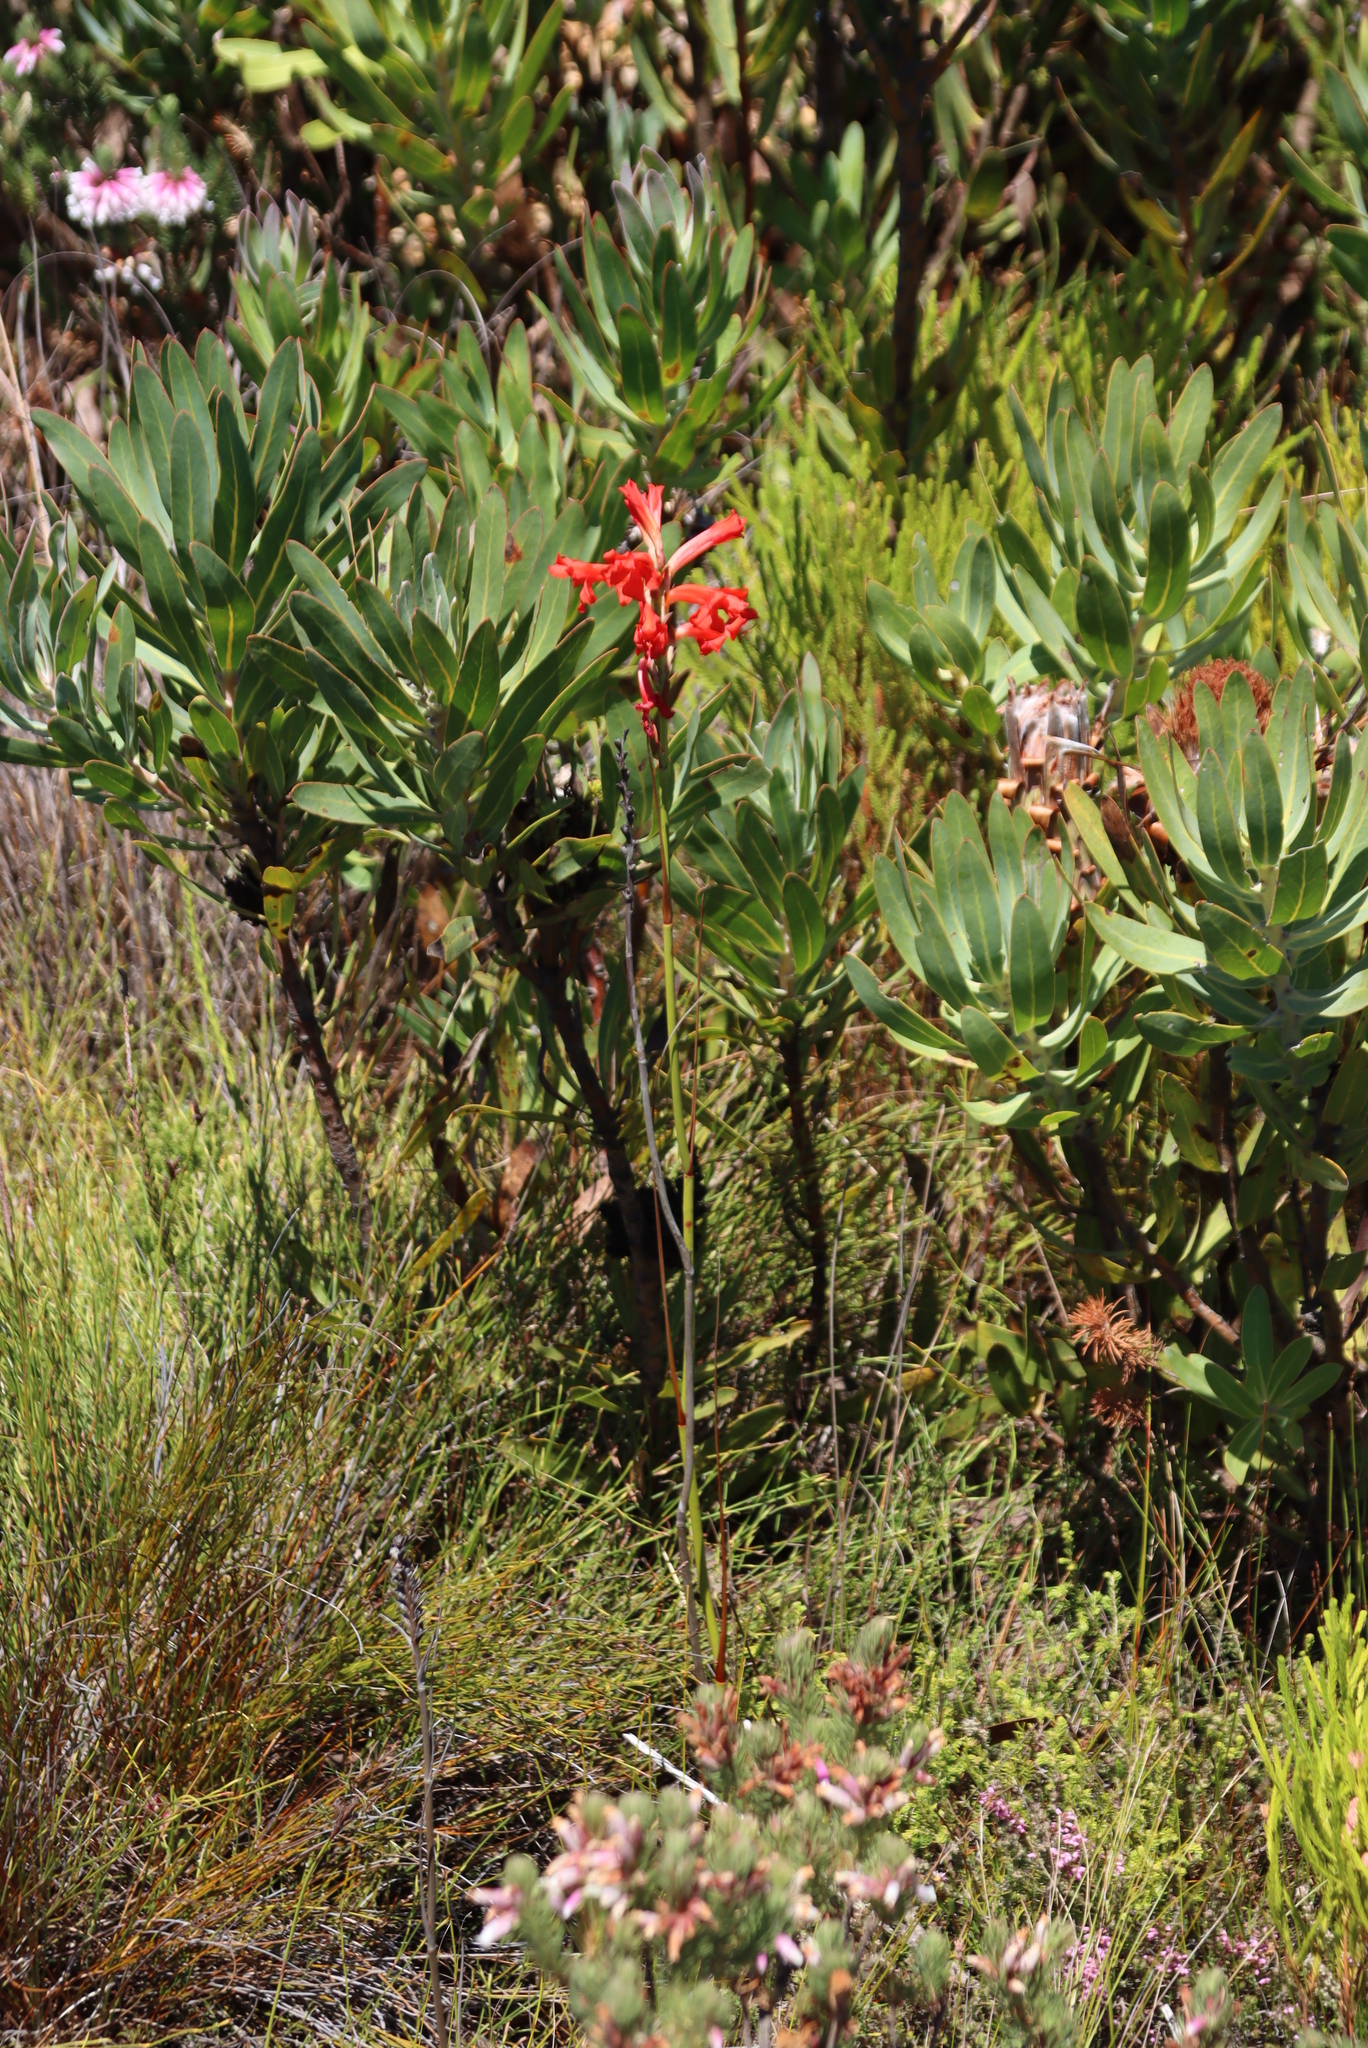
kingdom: Plantae
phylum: Tracheophyta
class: Liliopsida
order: Asparagales
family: Iridaceae
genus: Tritoniopsis
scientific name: Tritoniopsis triticea
